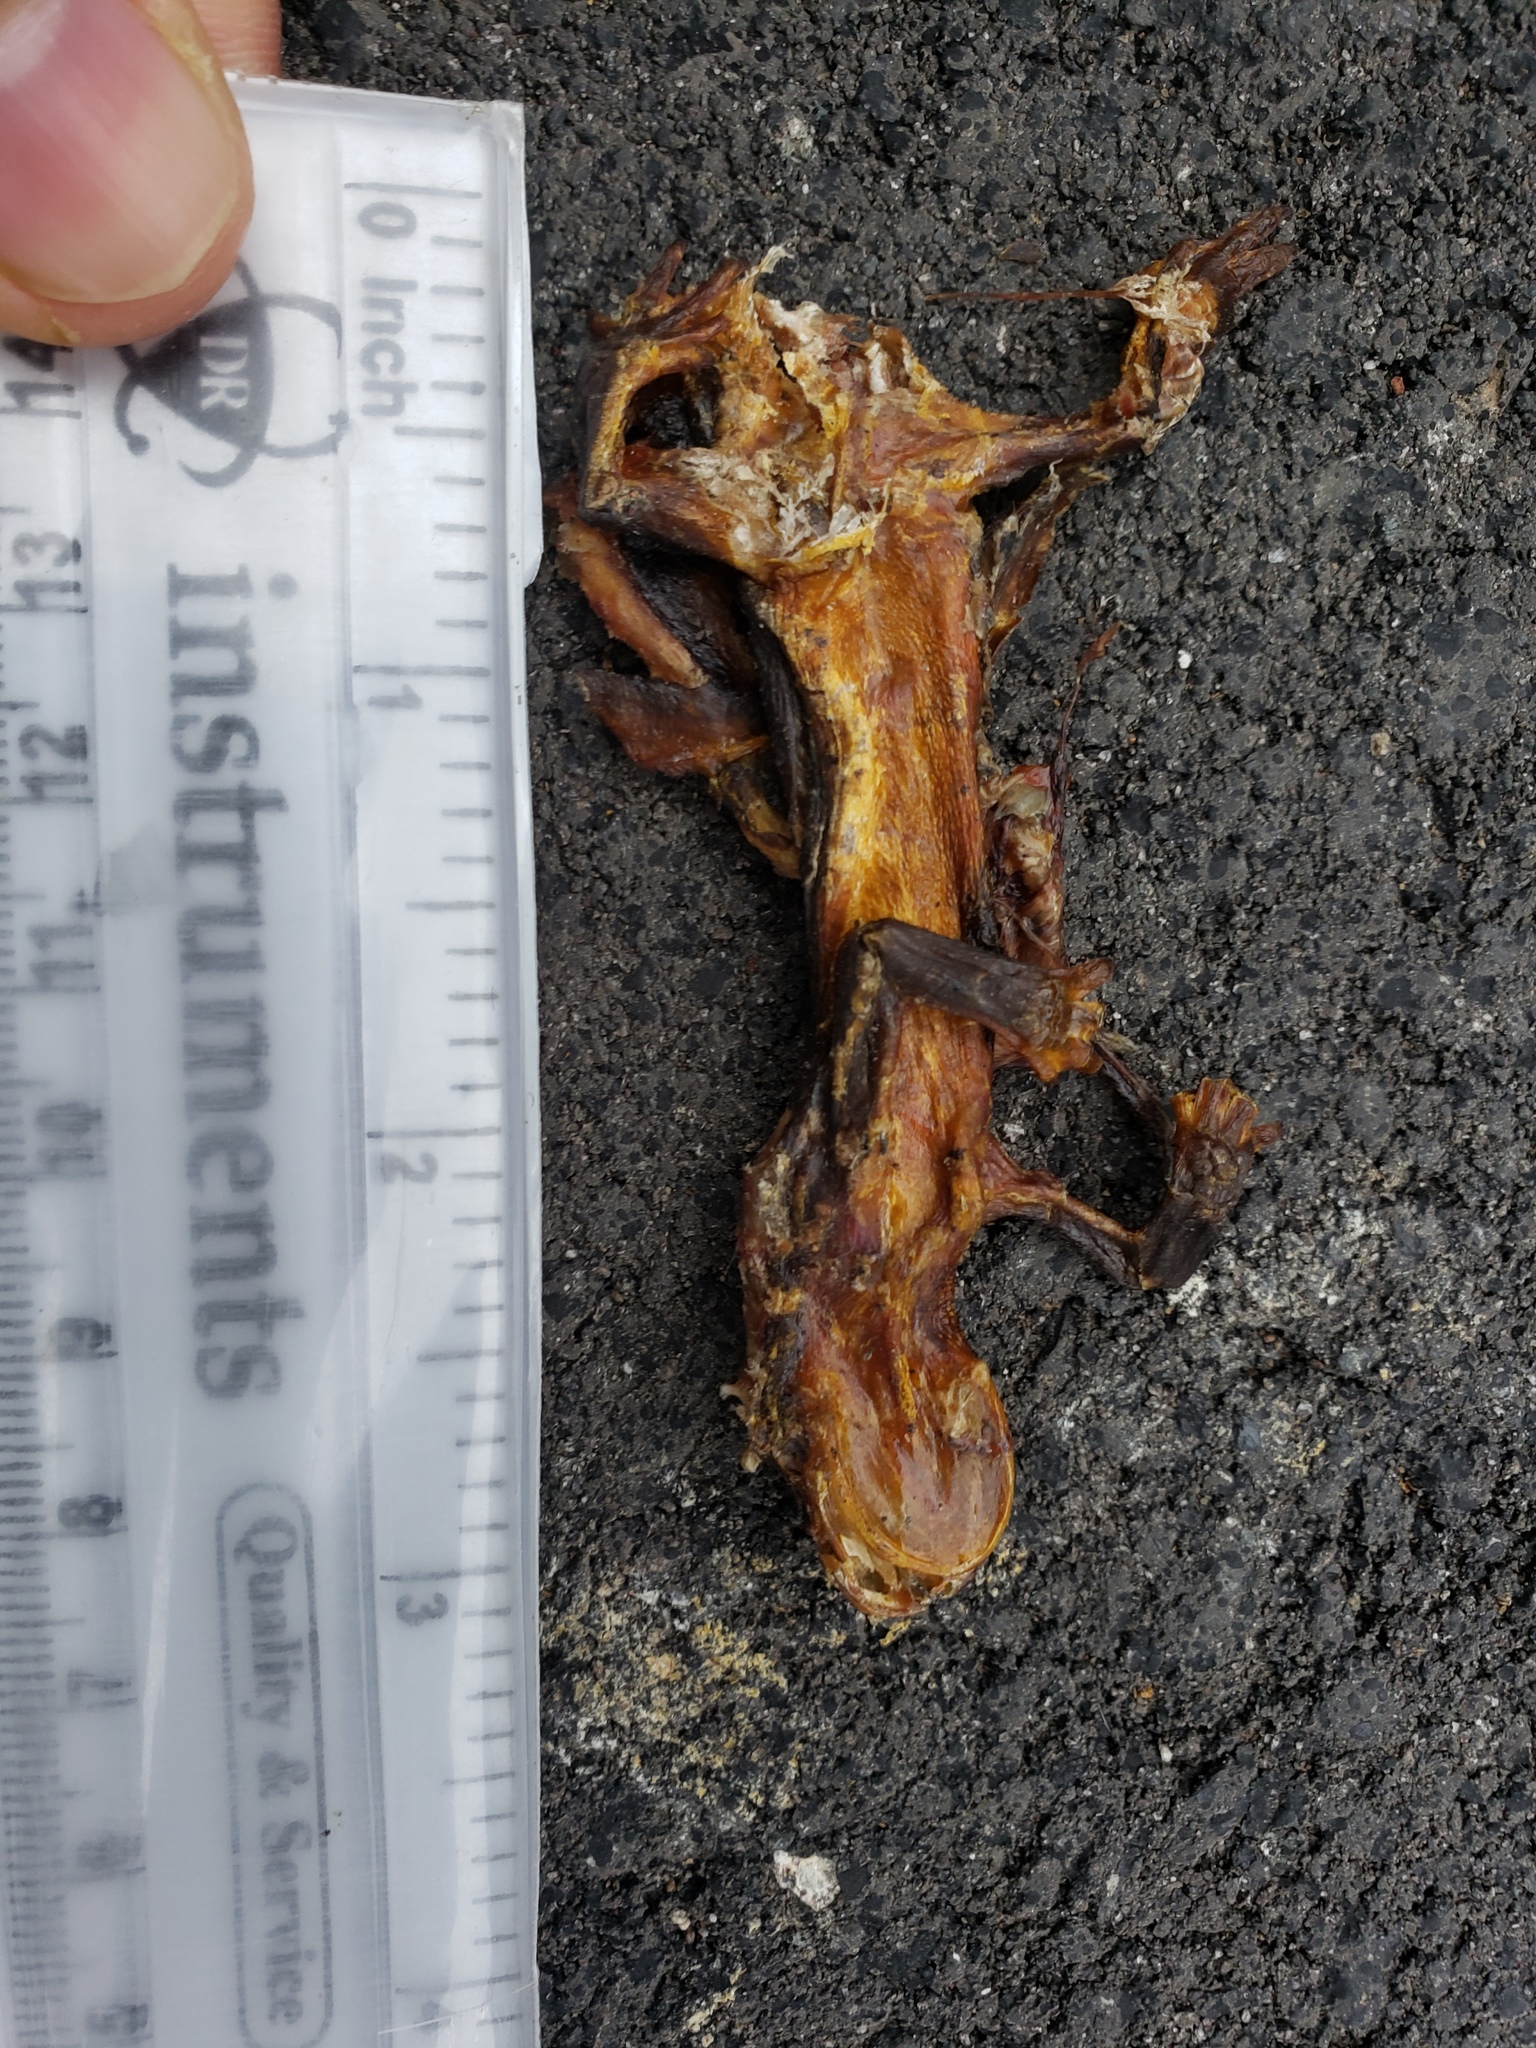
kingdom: Animalia
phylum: Chordata
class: Amphibia
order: Caudata
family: Salamandridae
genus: Taricha
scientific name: Taricha
